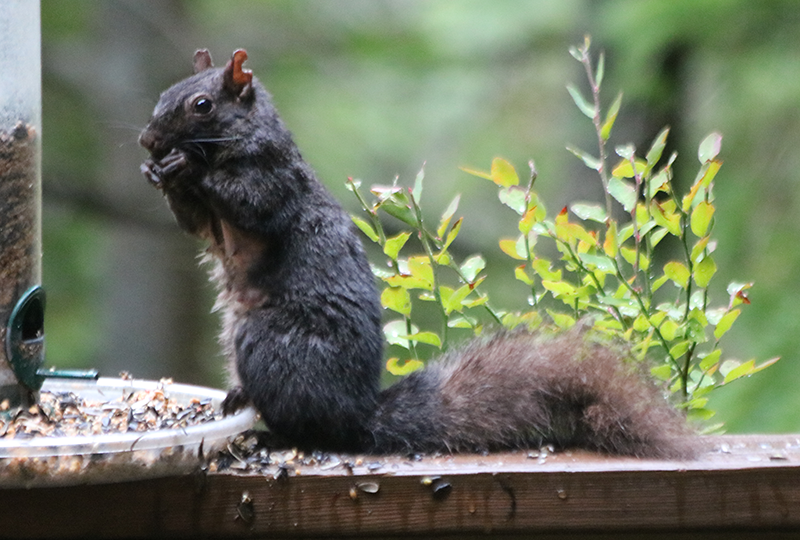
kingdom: Animalia
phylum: Chordata
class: Mammalia
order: Rodentia
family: Sciuridae
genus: Sciurus
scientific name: Sciurus carolinensis
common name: Eastern gray squirrel
